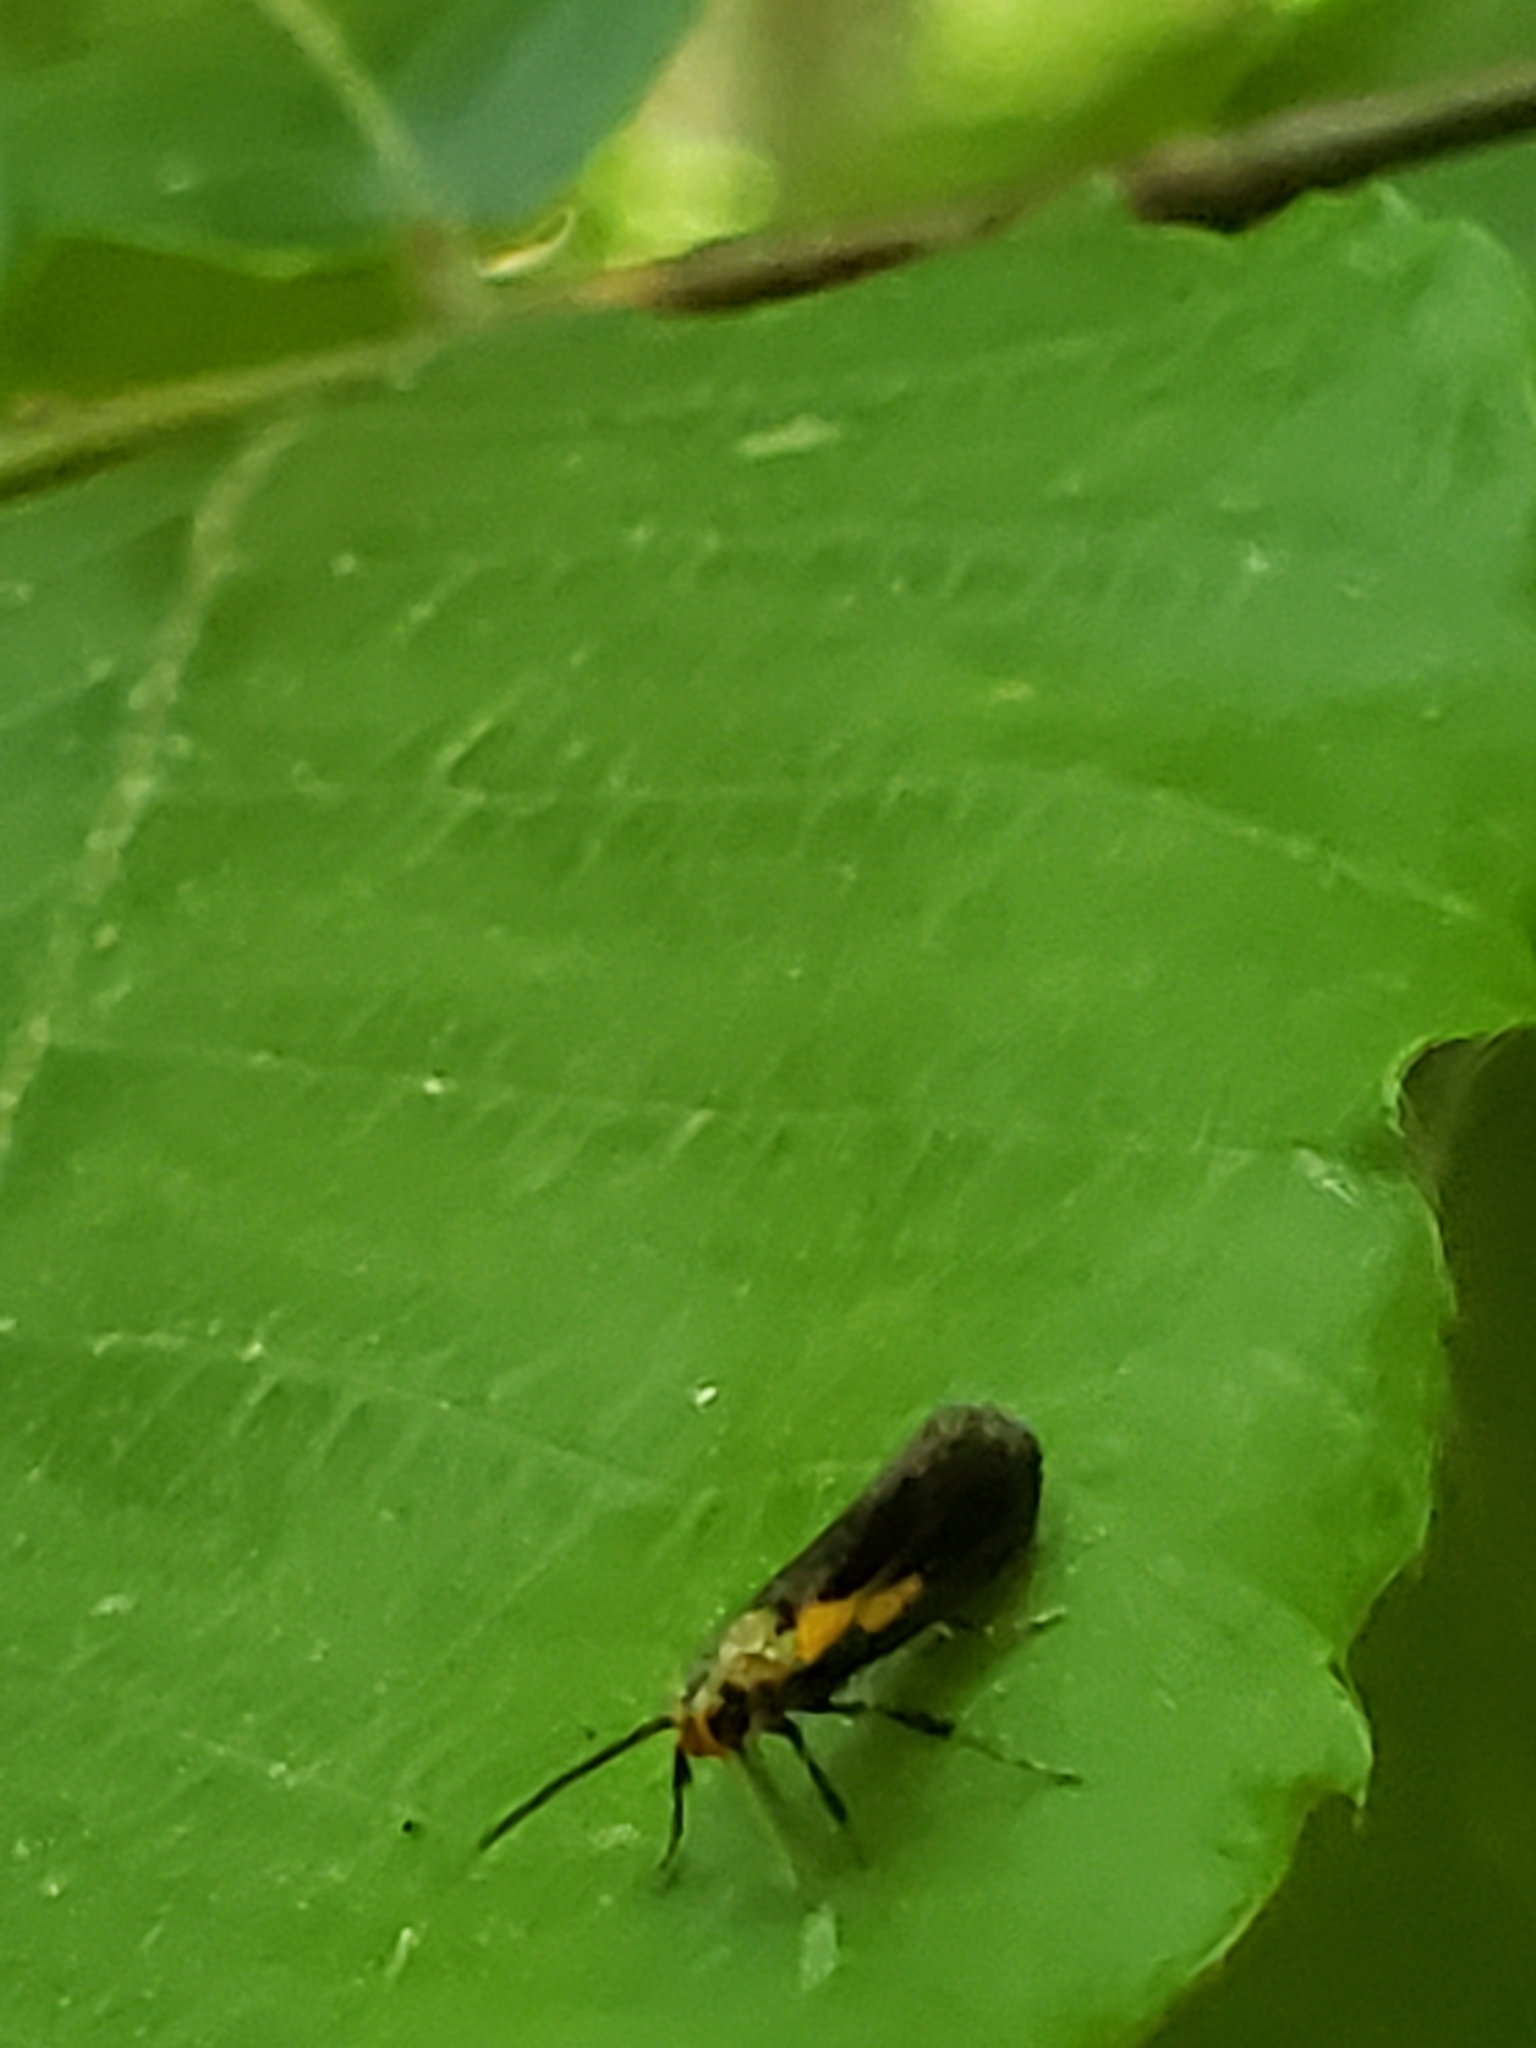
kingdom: Animalia
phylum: Arthropoda
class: Insecta
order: Lepidoptera
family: Oecophoridae
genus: Mathildana
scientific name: Mathildana newmanella
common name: Newman's mathildana moth
